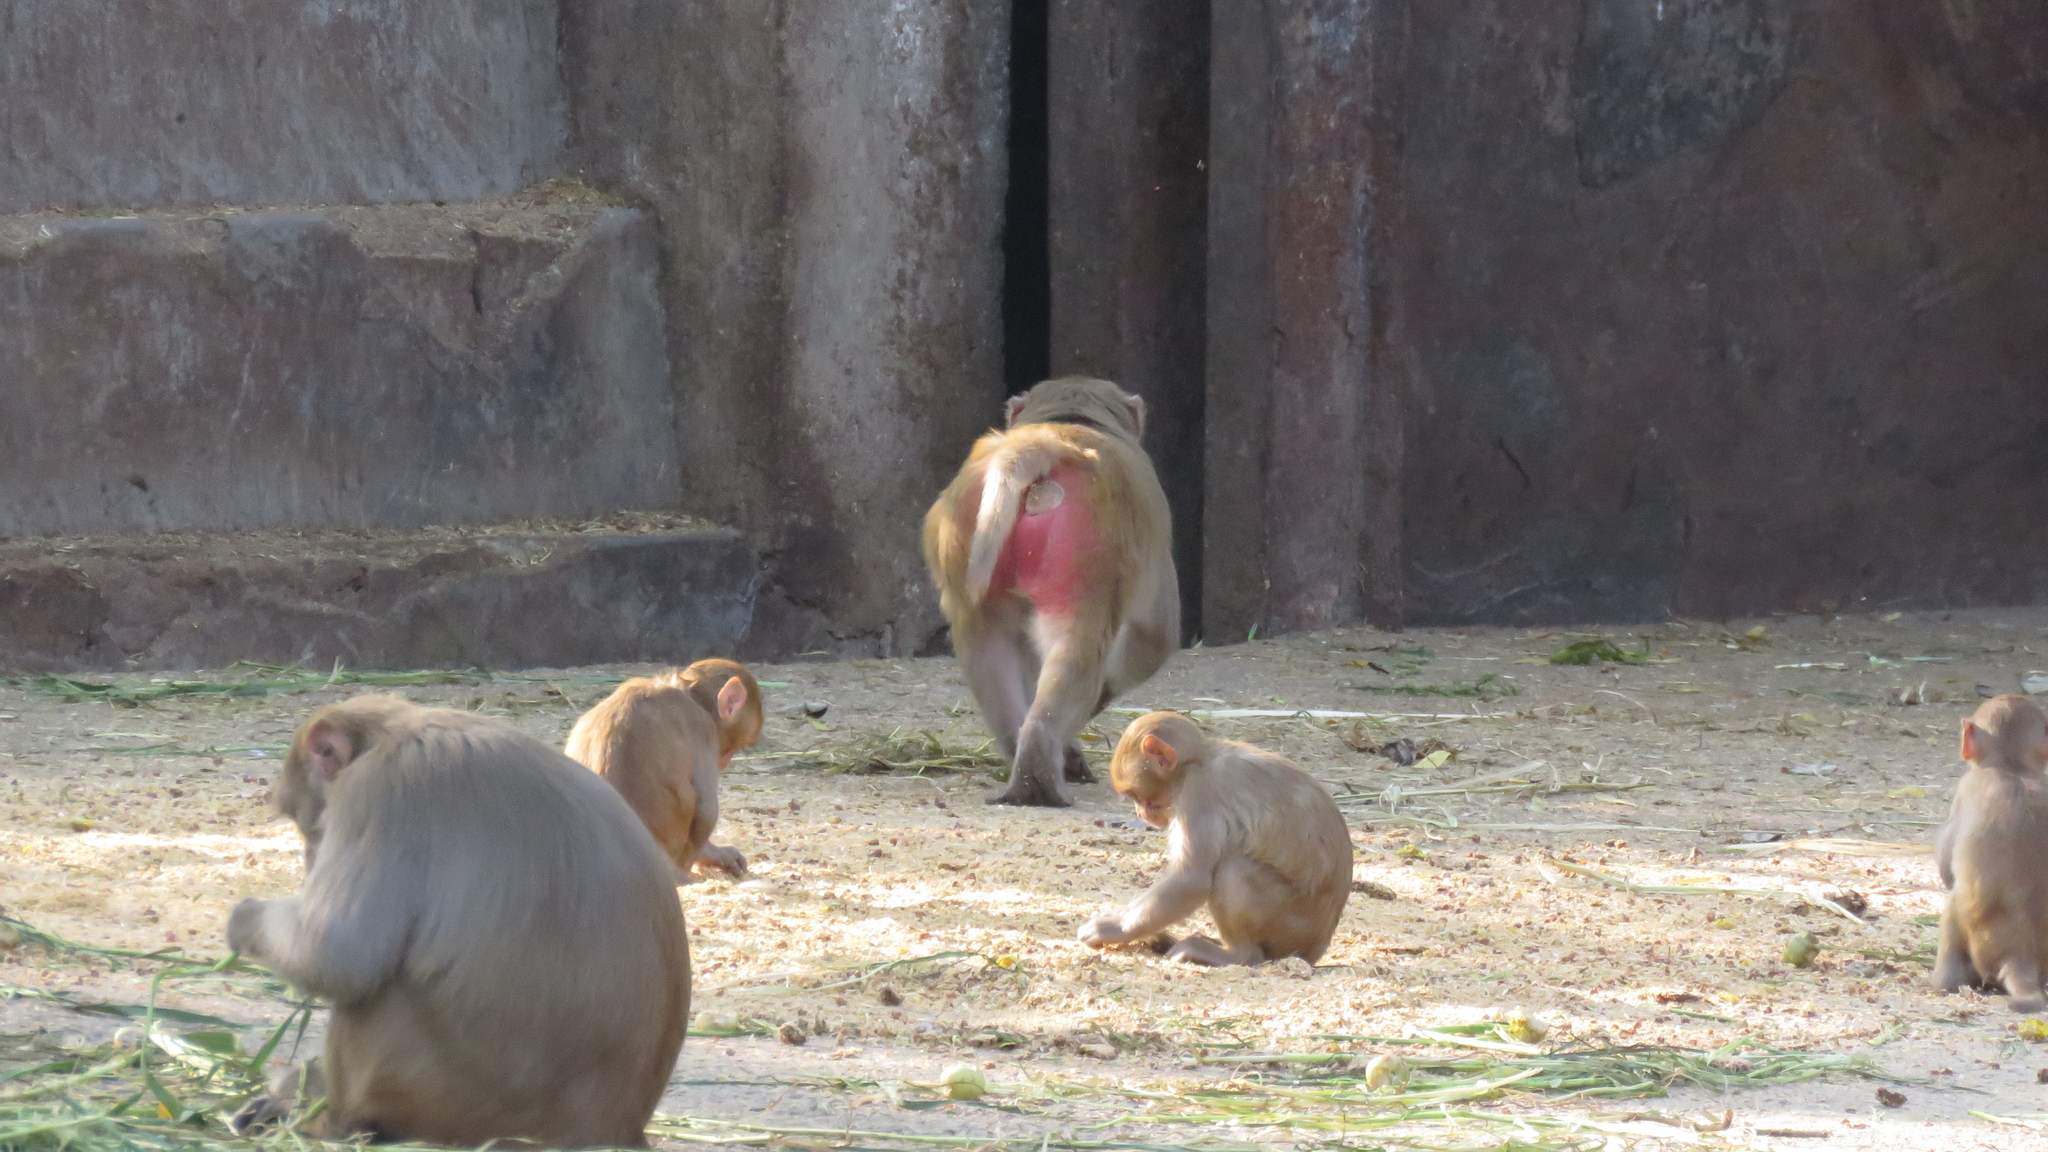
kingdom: Animalia
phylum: Chordata
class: Mammalia
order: Primates
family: Cercopithecidae
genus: Macaca
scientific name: Macaca mulatta
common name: Rhesus monkey
